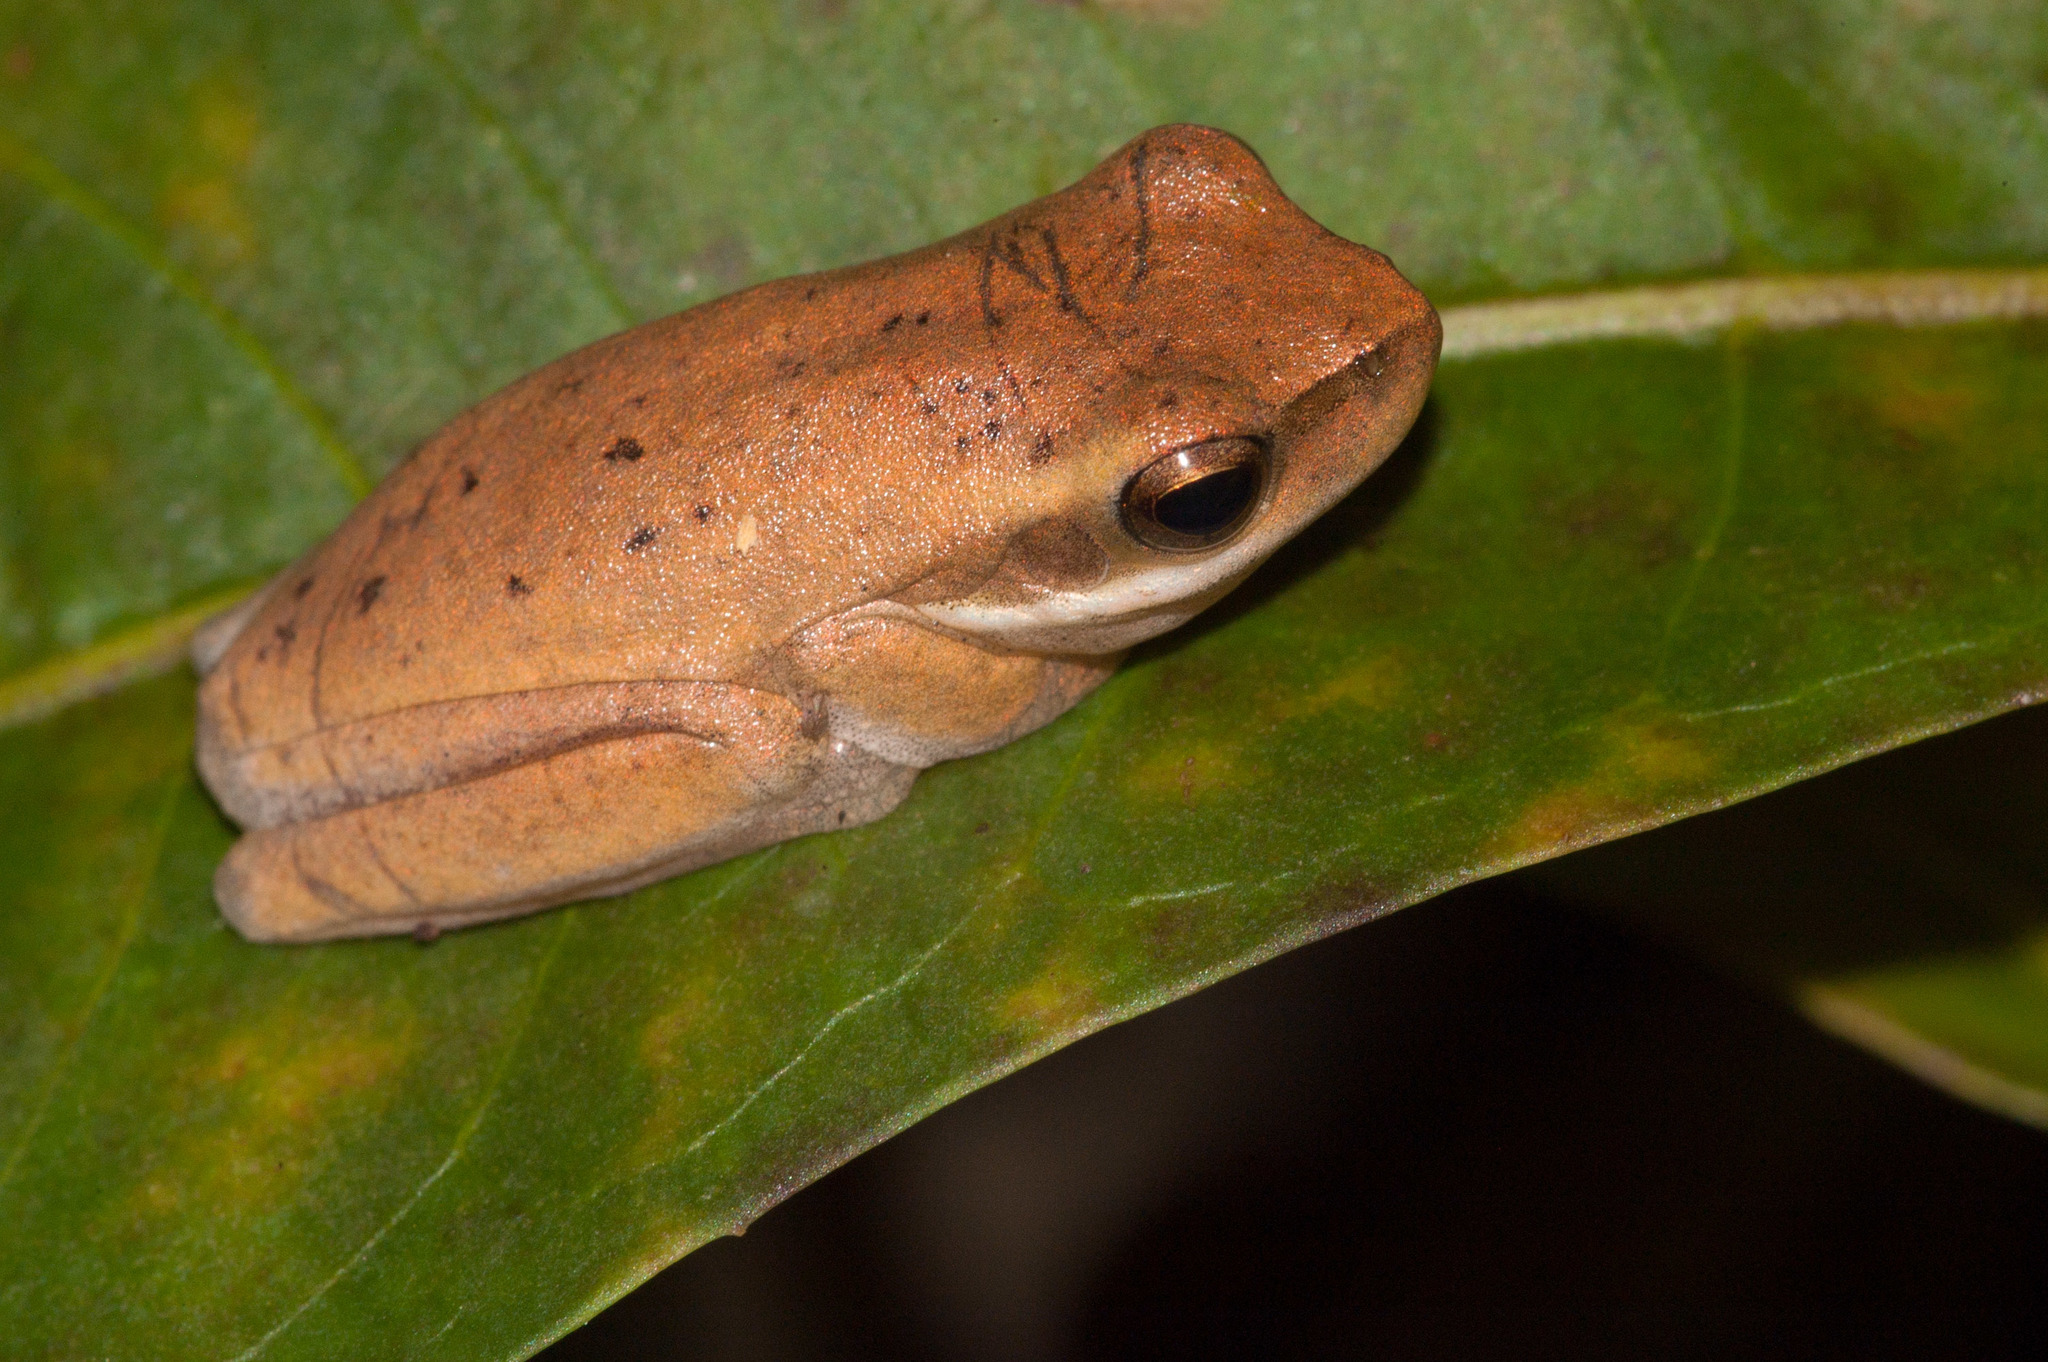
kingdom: Animalia
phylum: Chordata
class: Amphibia
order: Anura
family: Pelodryadidae
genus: Litoria
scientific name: Litoria fallax
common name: Eastern dwarf treefrog
